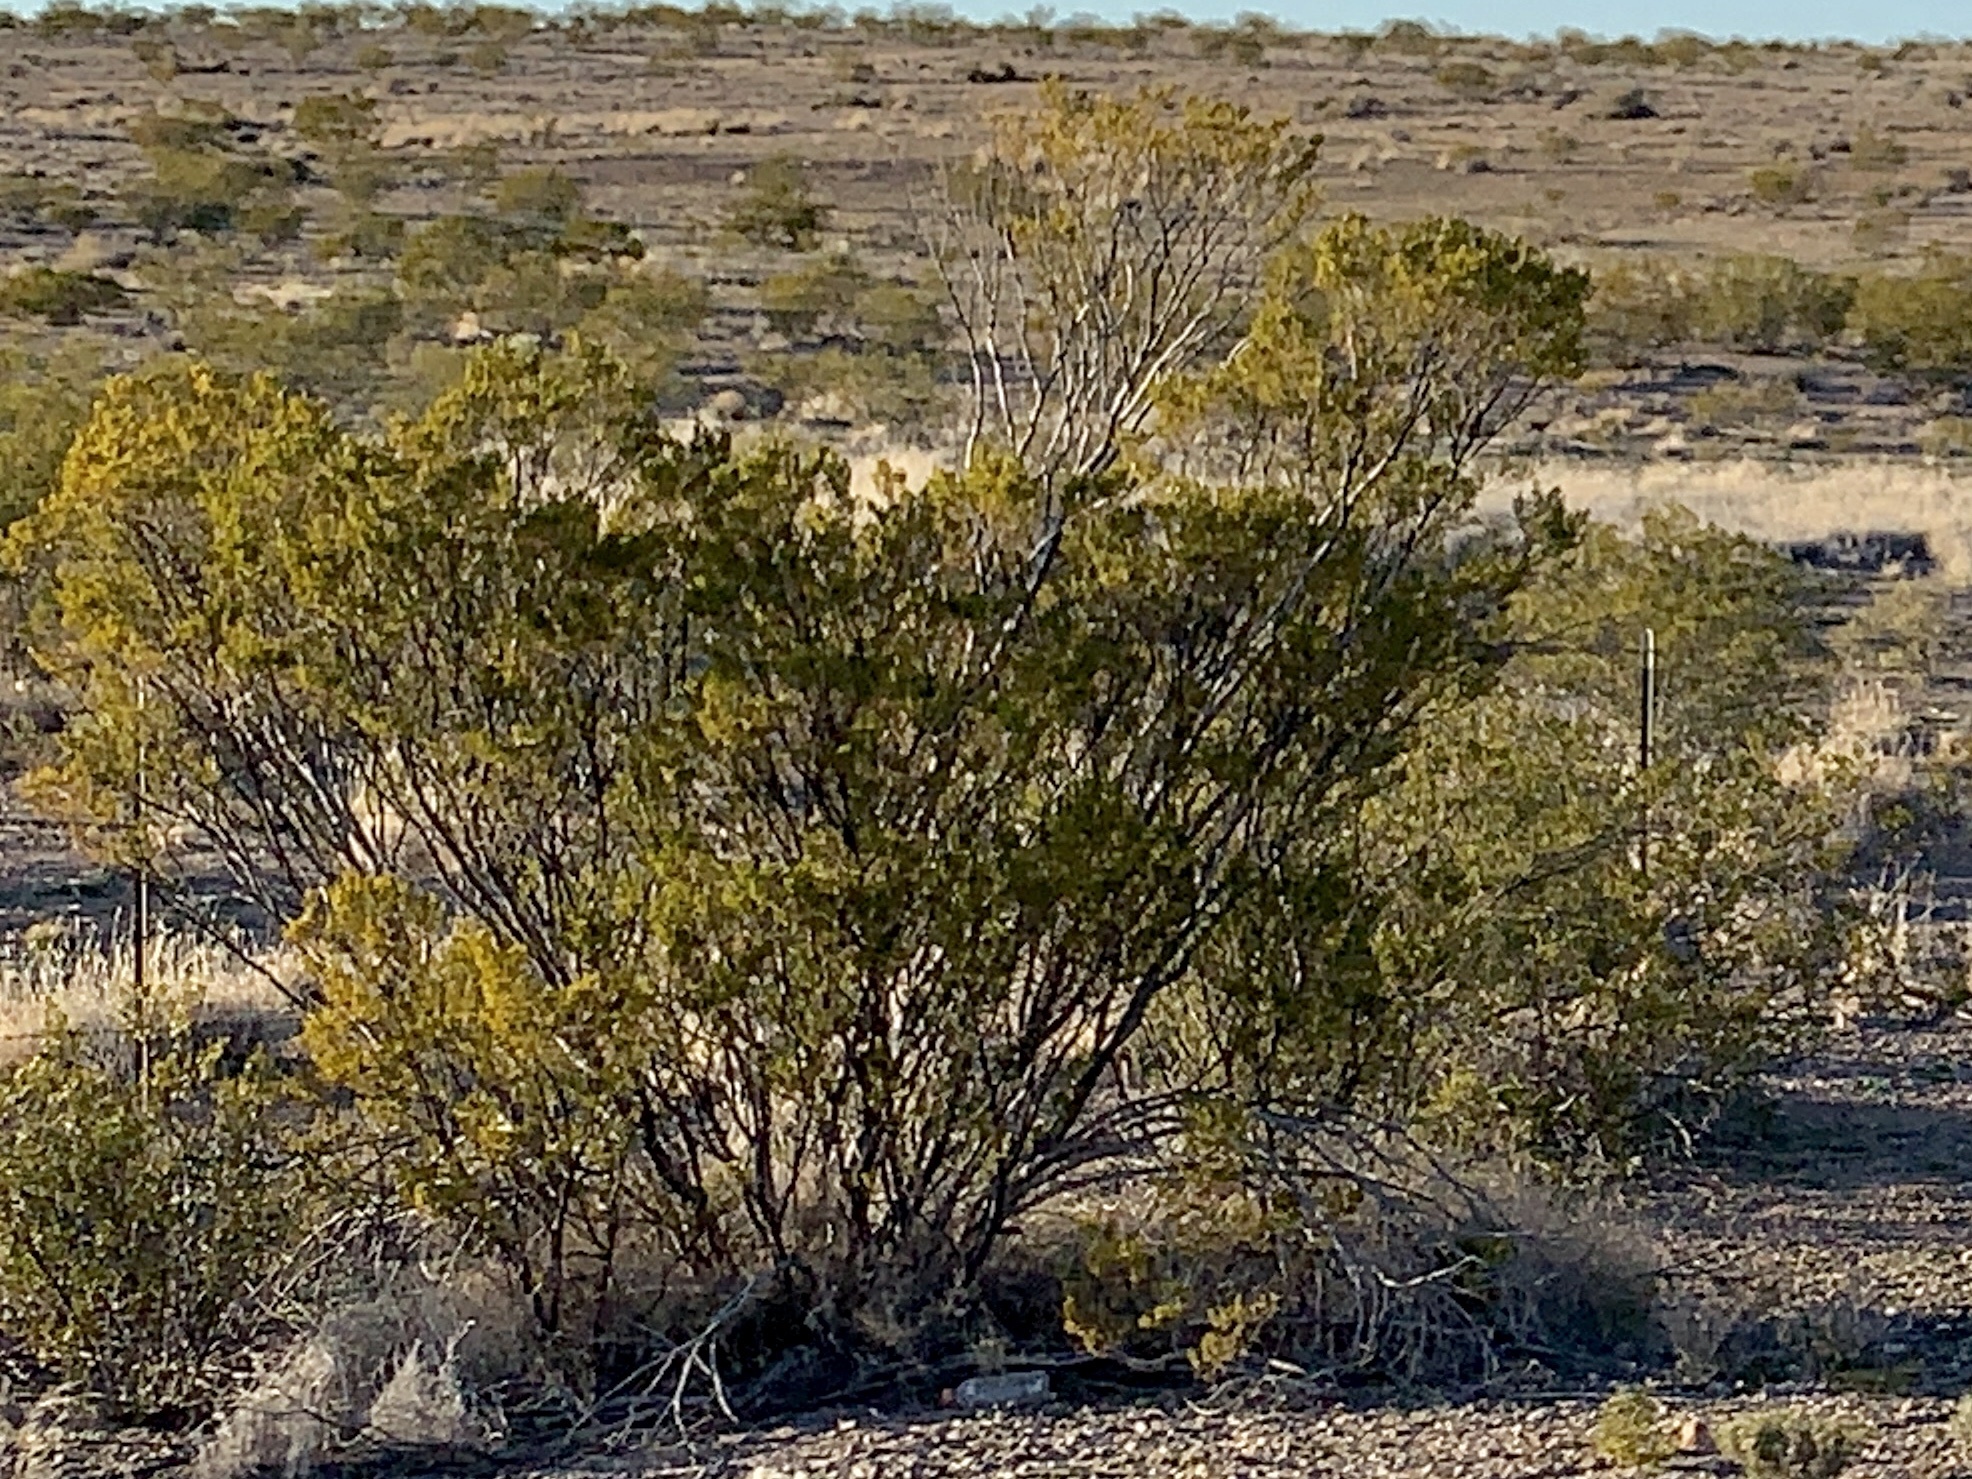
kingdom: Plantae
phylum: Tracheophyta
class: Magnoliopsida
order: Zygophyllales
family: Zygophyllaceae
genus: Larrea
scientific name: Larrea tridentata
